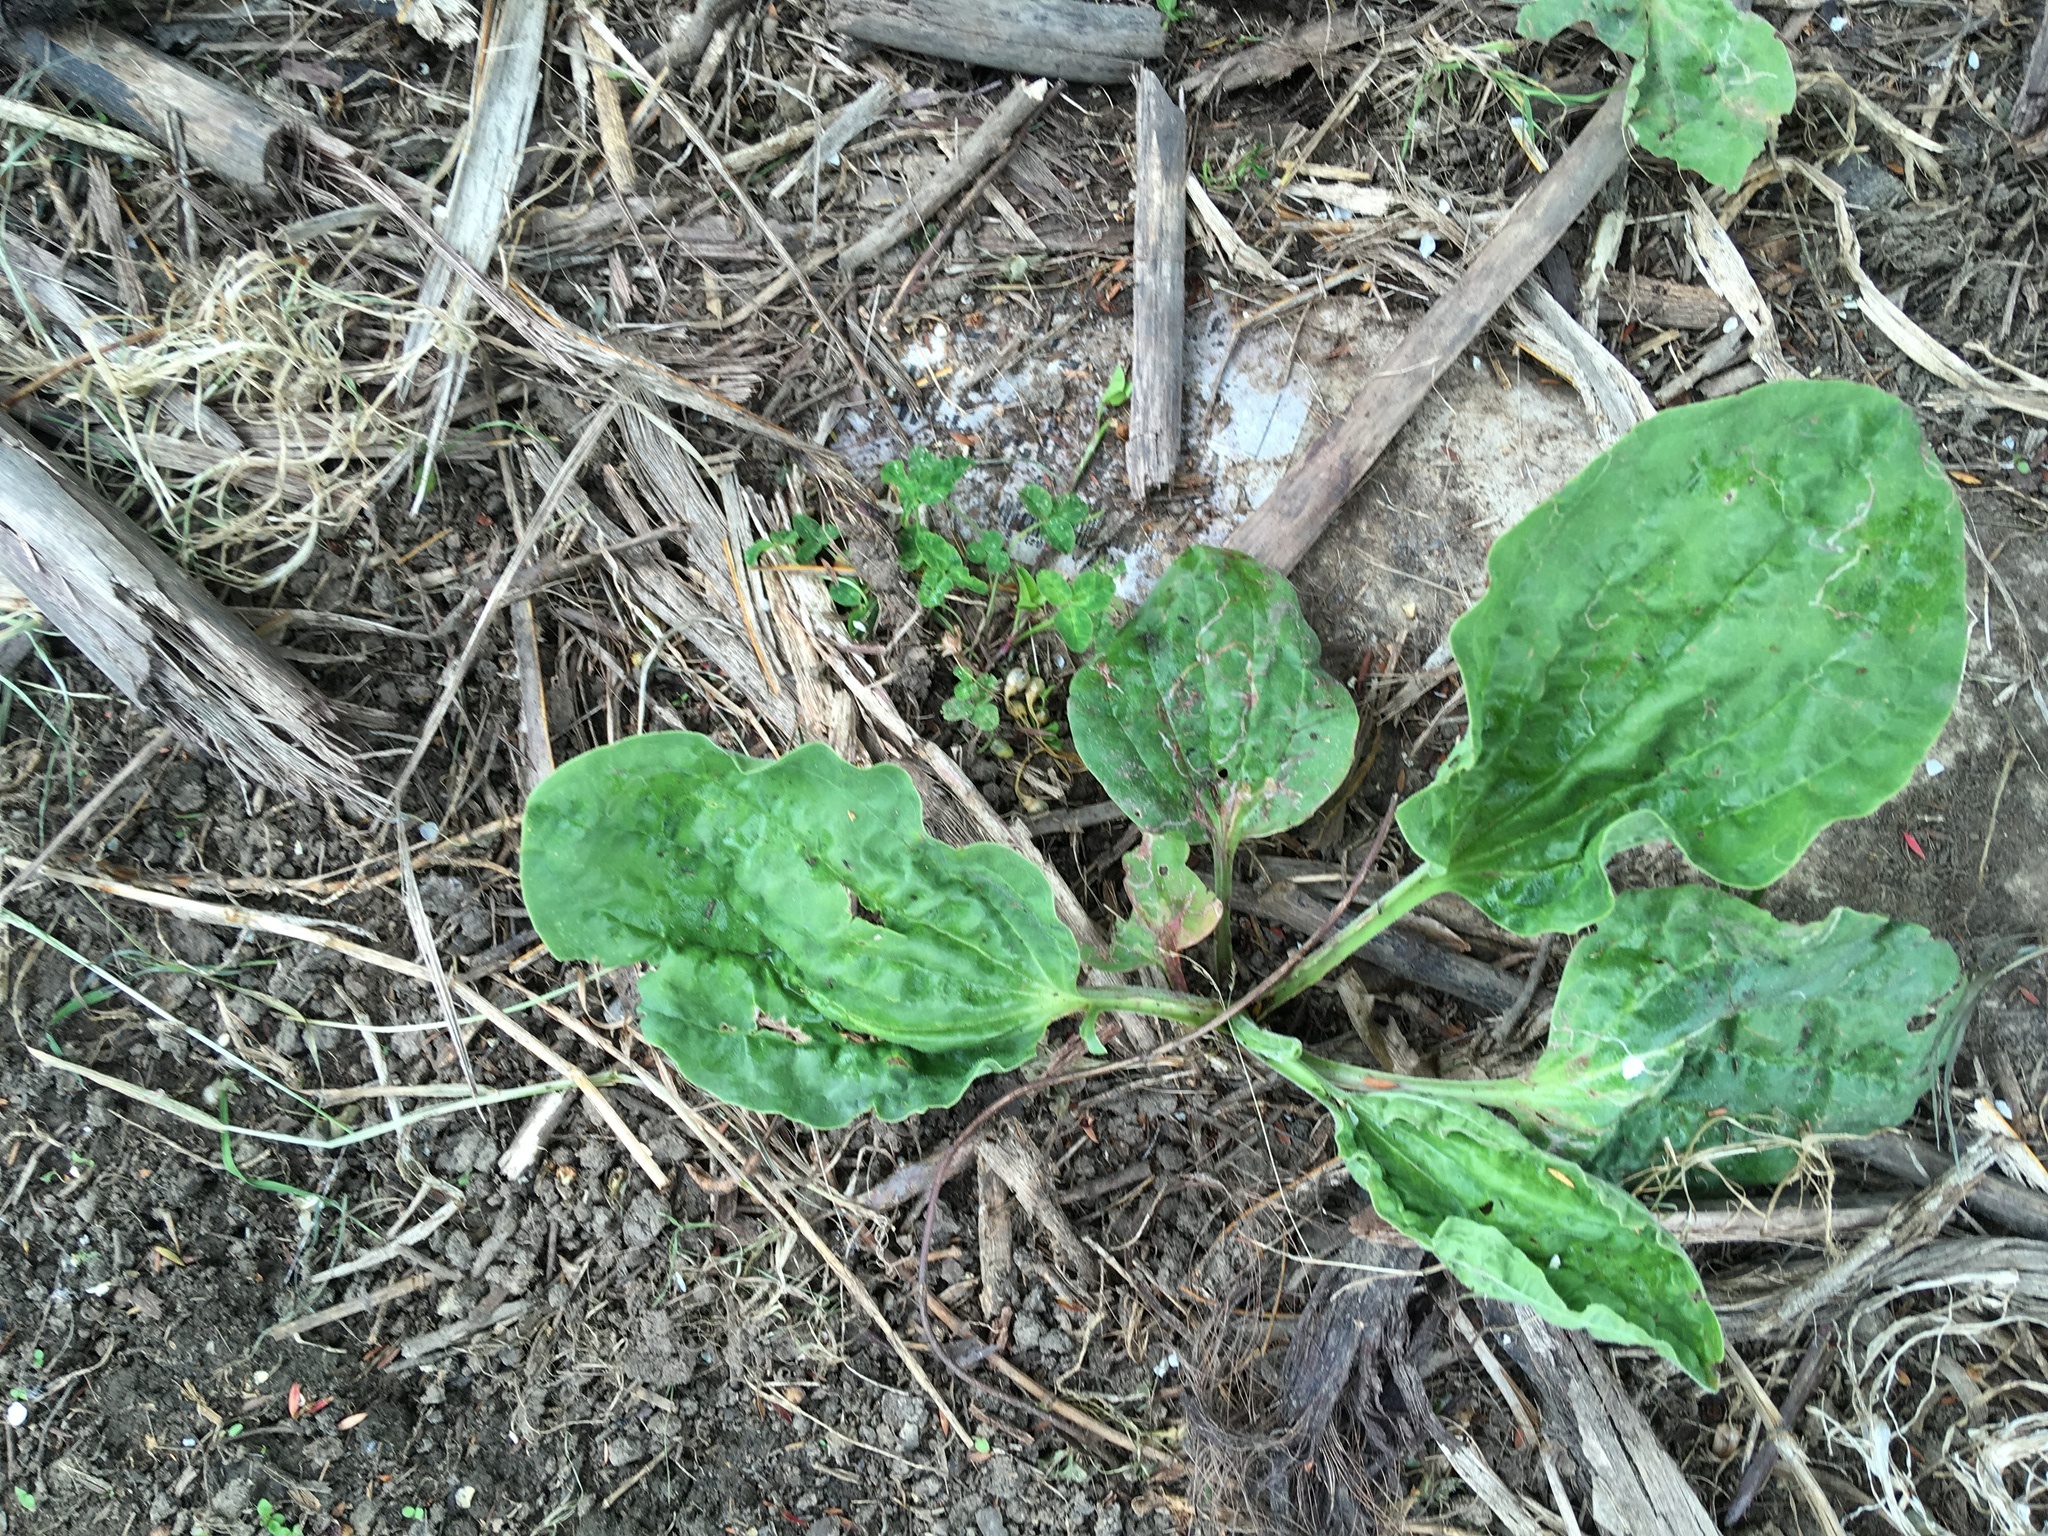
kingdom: Plantae
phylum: Tracheophyta
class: Magnoliopsida
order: Lamiales
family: Plantaginaceae
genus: Plantago
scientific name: Plantago major
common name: Common plantain
